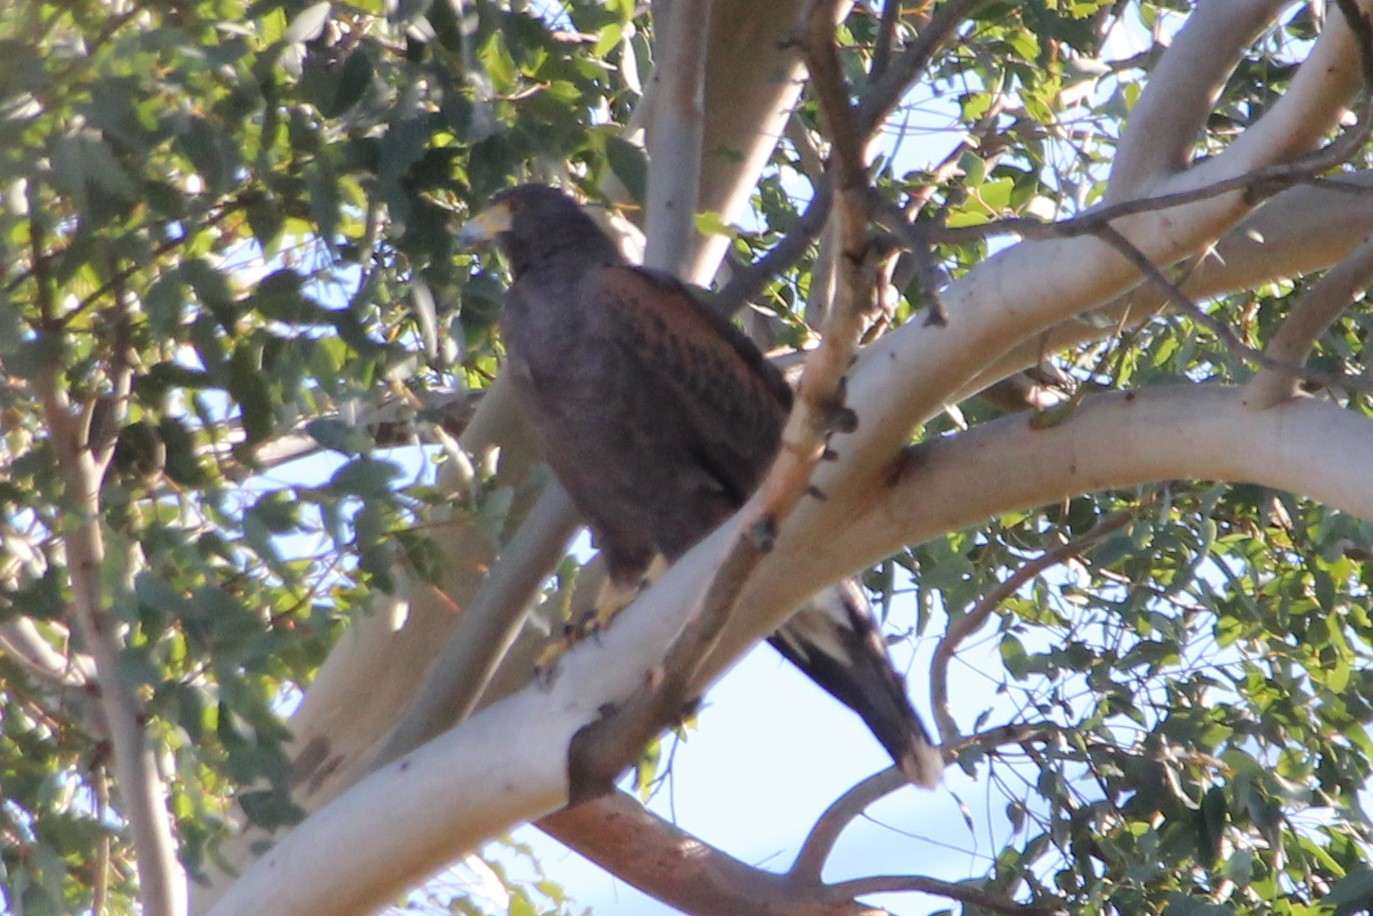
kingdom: Animalia
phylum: Chordata
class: Aves
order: Accipitriformes
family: Accipitridae
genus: Parabuteo
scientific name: Parabuteo unicinctus
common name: Harris's hawk
